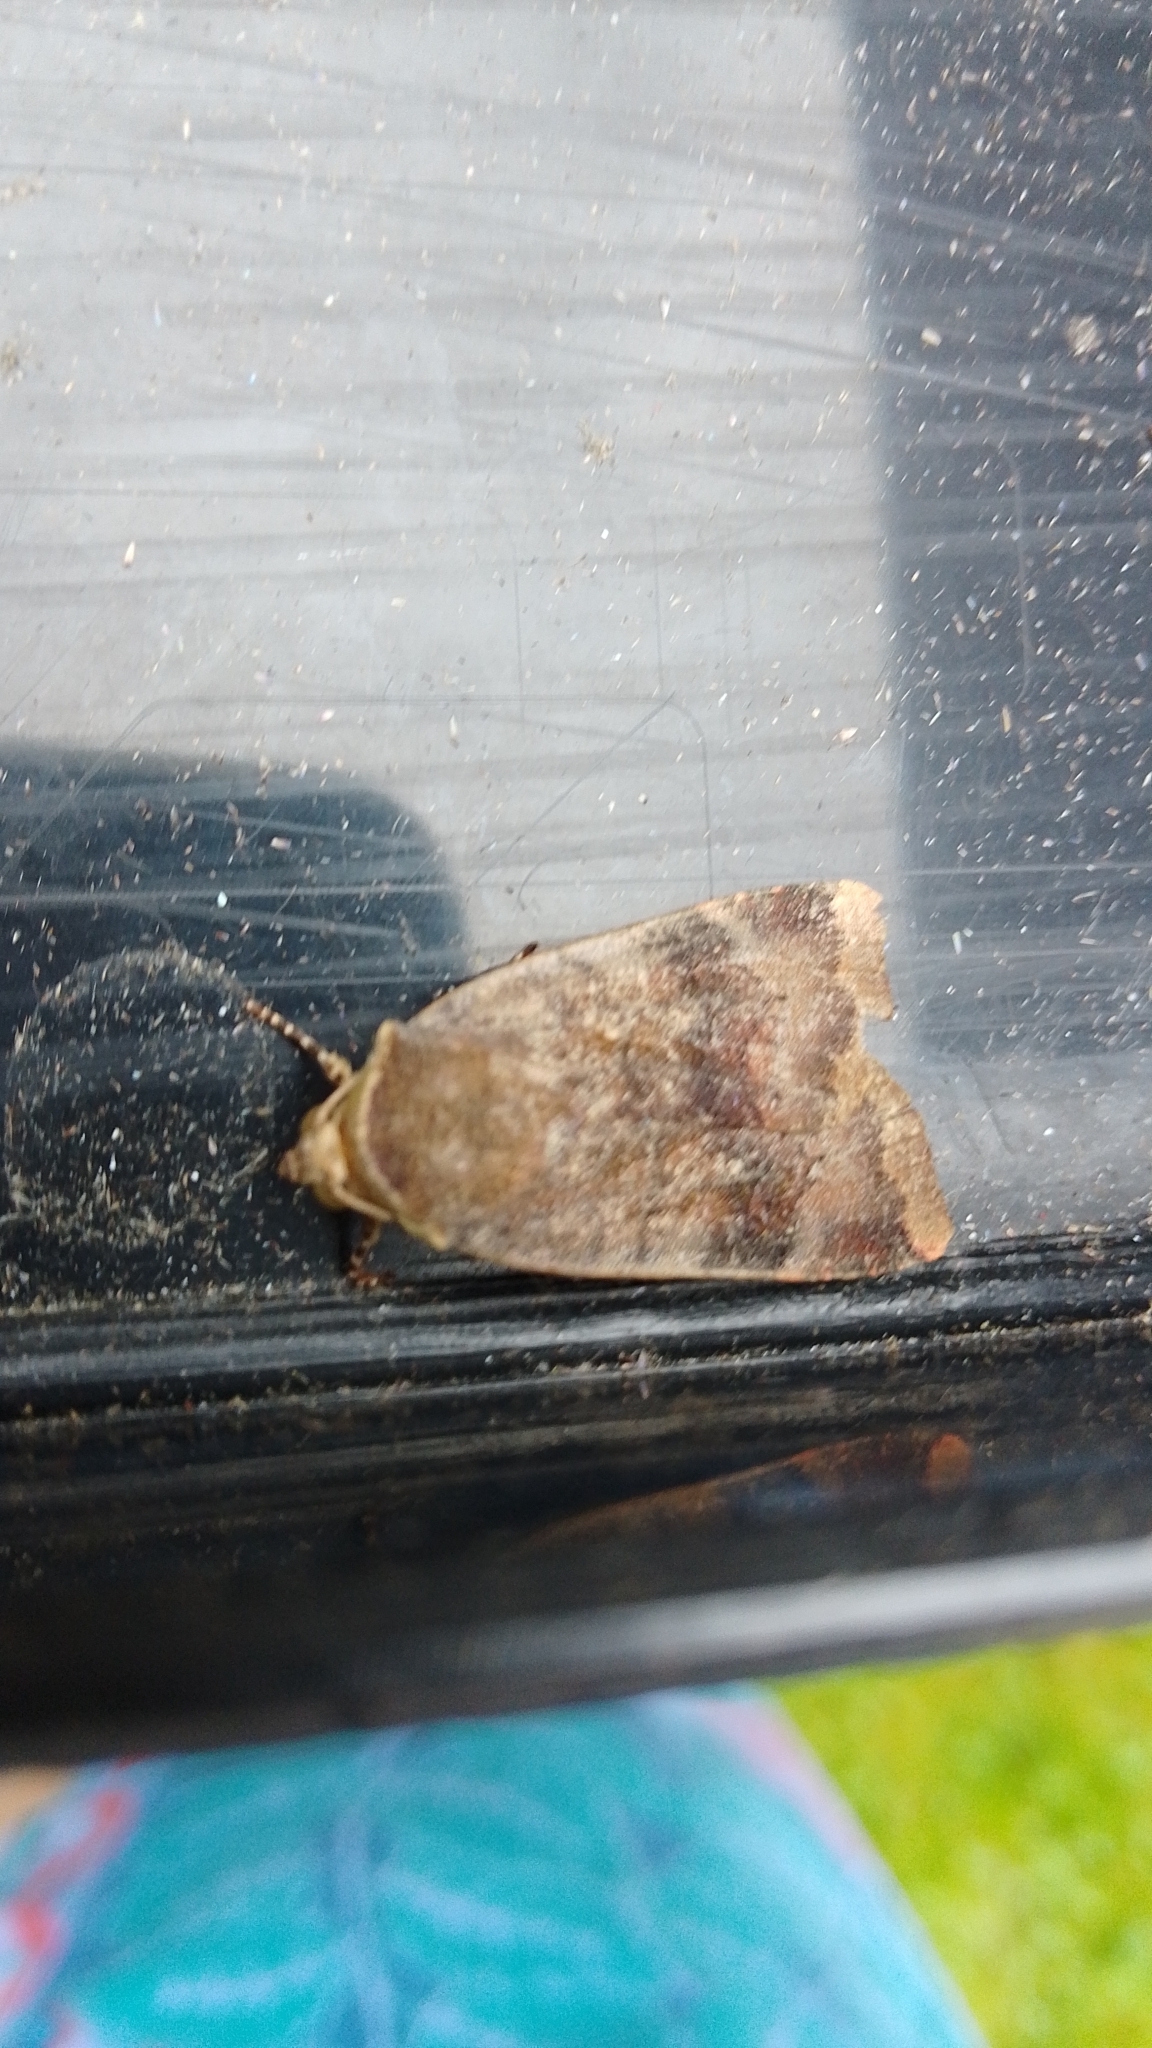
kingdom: Animalia
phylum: Arthropoda
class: Insecta
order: Lepidoptera
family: Noctuidae
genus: Noctua
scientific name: Noctua janthe
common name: Lesser broad-bordered yellow underwing
